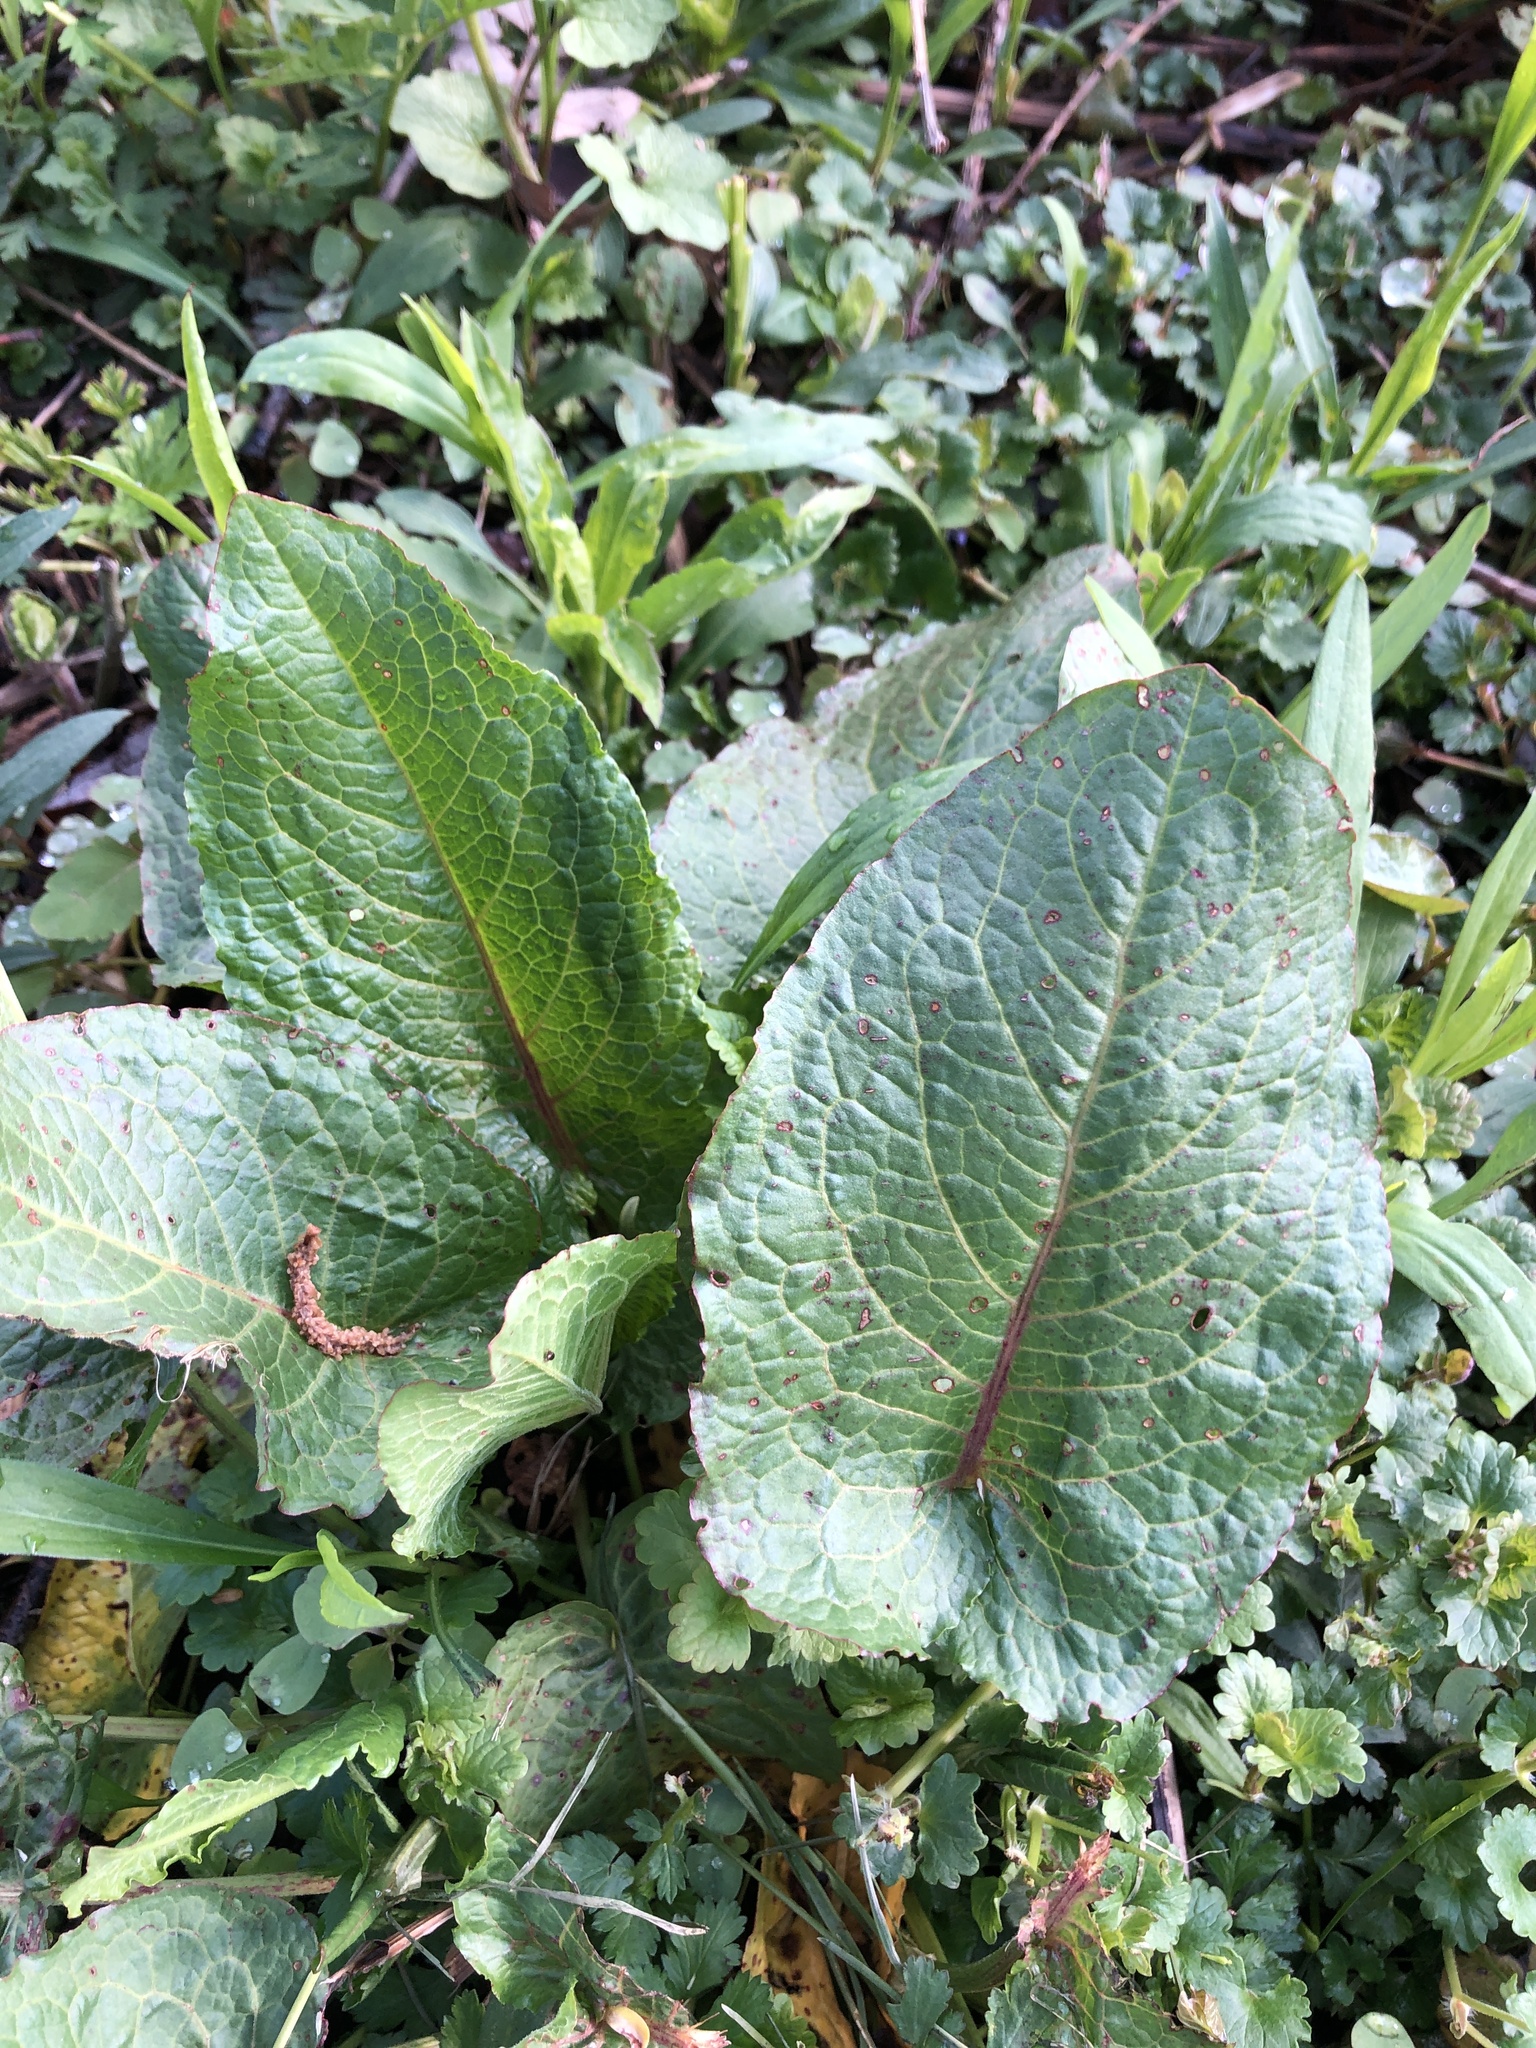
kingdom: Plantae
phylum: Tracheophyta
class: Magnoliopsida
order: Caryophyllales
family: Polygonaceae
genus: Rumex
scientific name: Rumex obtusifolius
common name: Bitter dock
